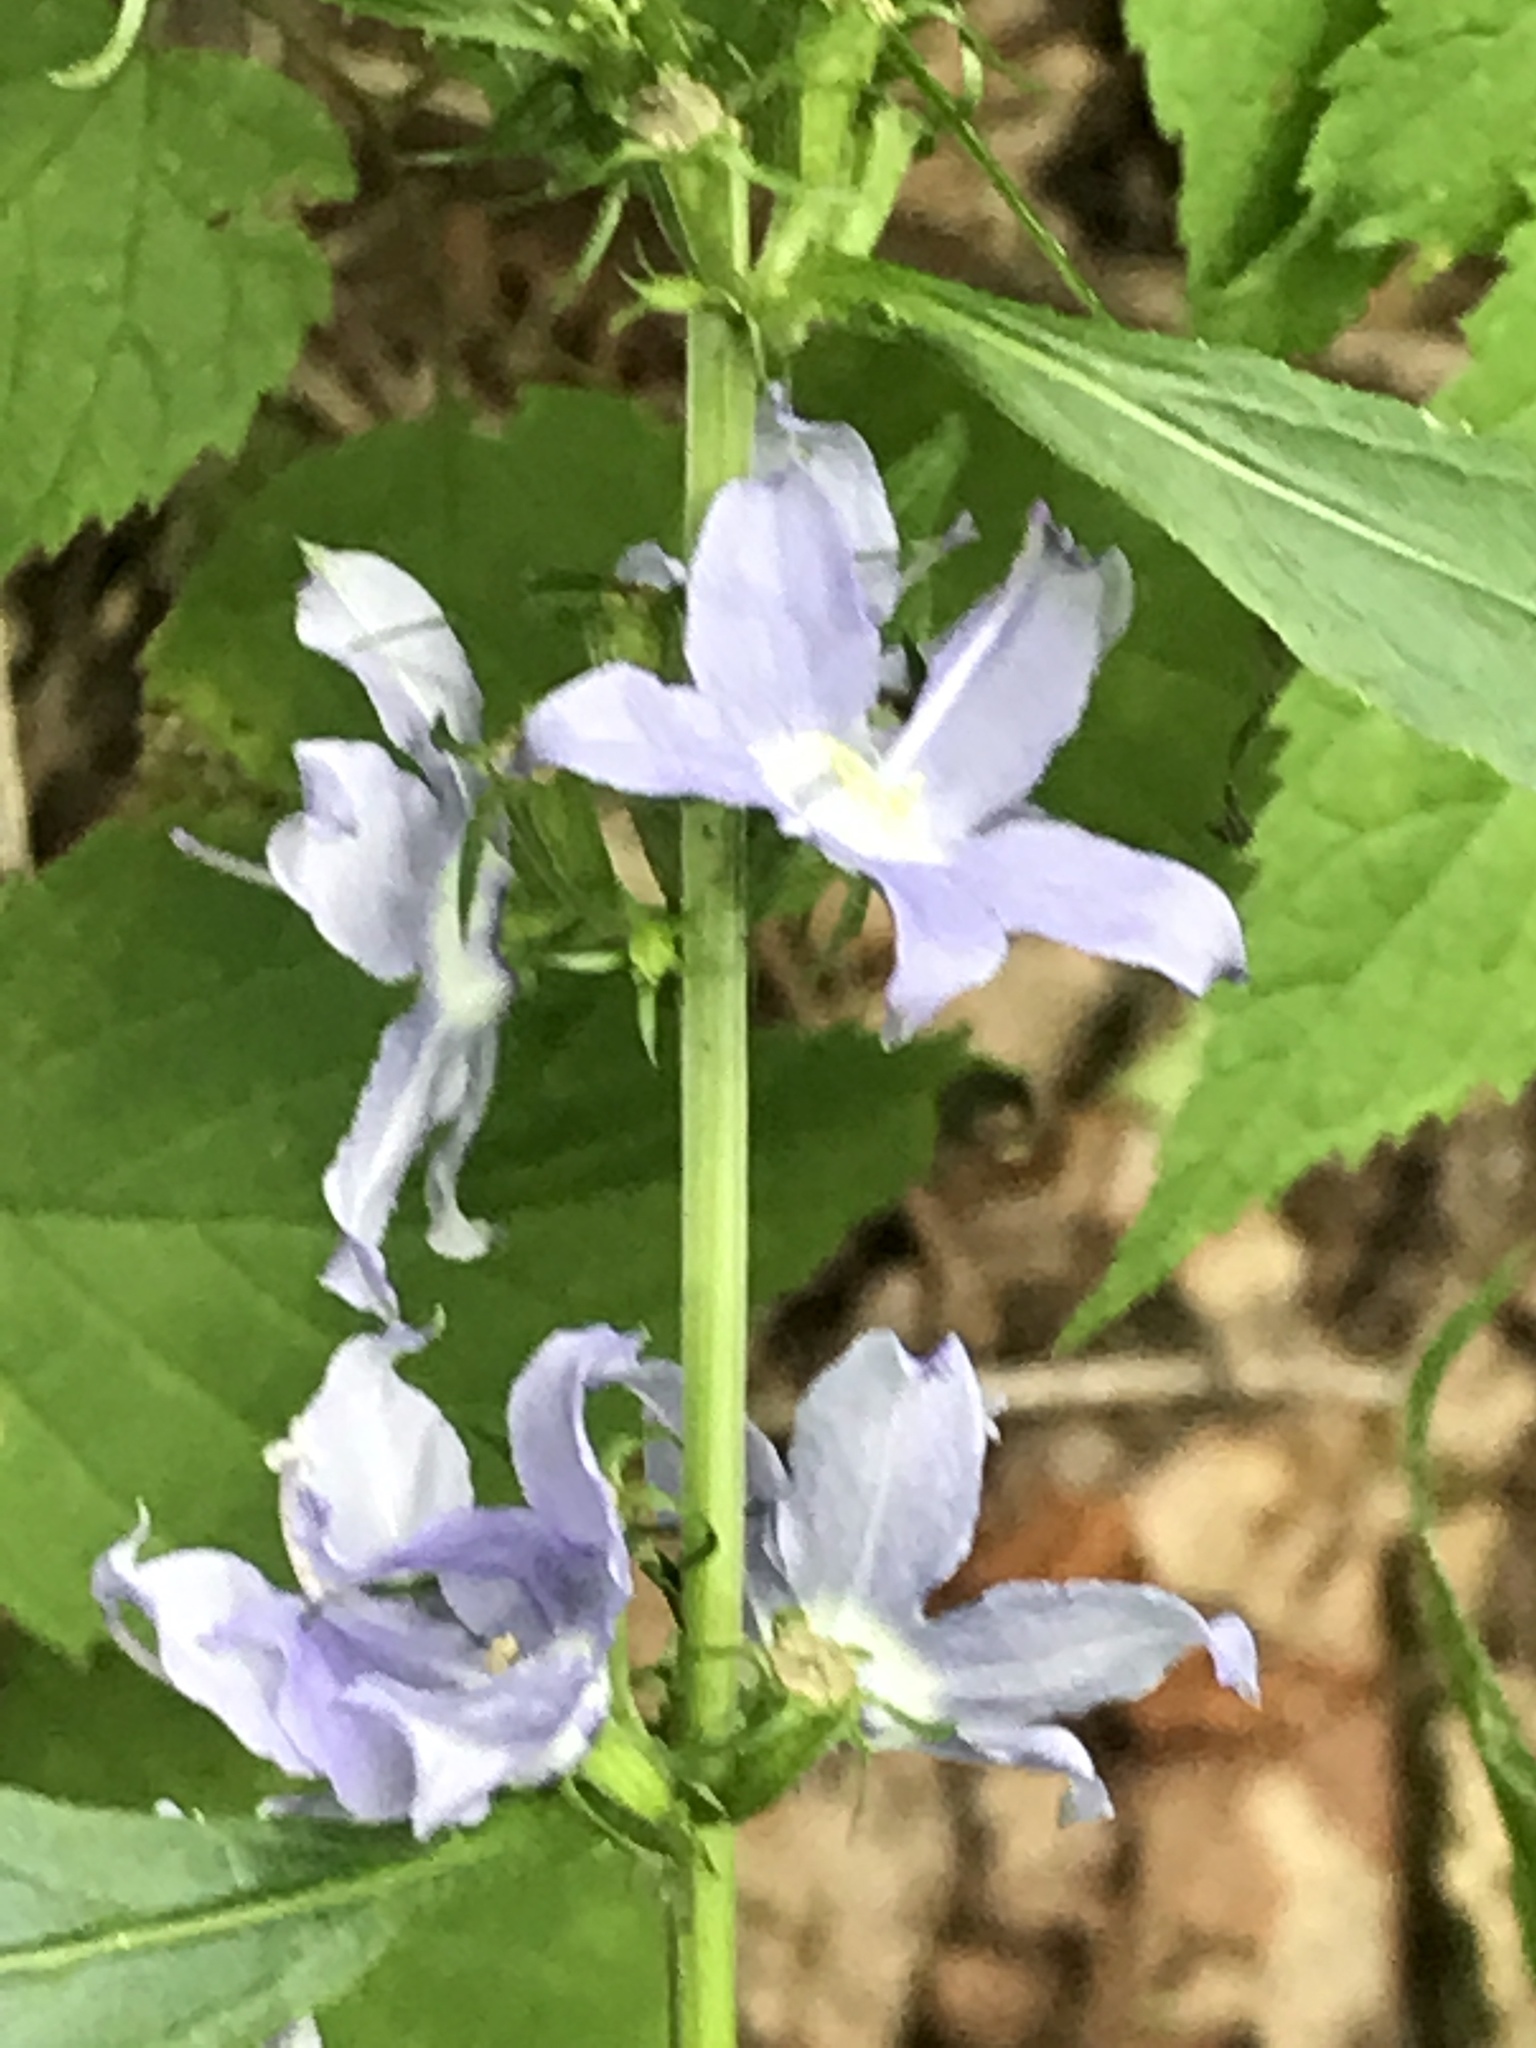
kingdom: Plantae
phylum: Tracheophyta
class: Magnoliopsida
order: Asterales
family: Campanulaceae
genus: Campanulastrum
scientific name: Campanulastrum americanum
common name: American bellflower
